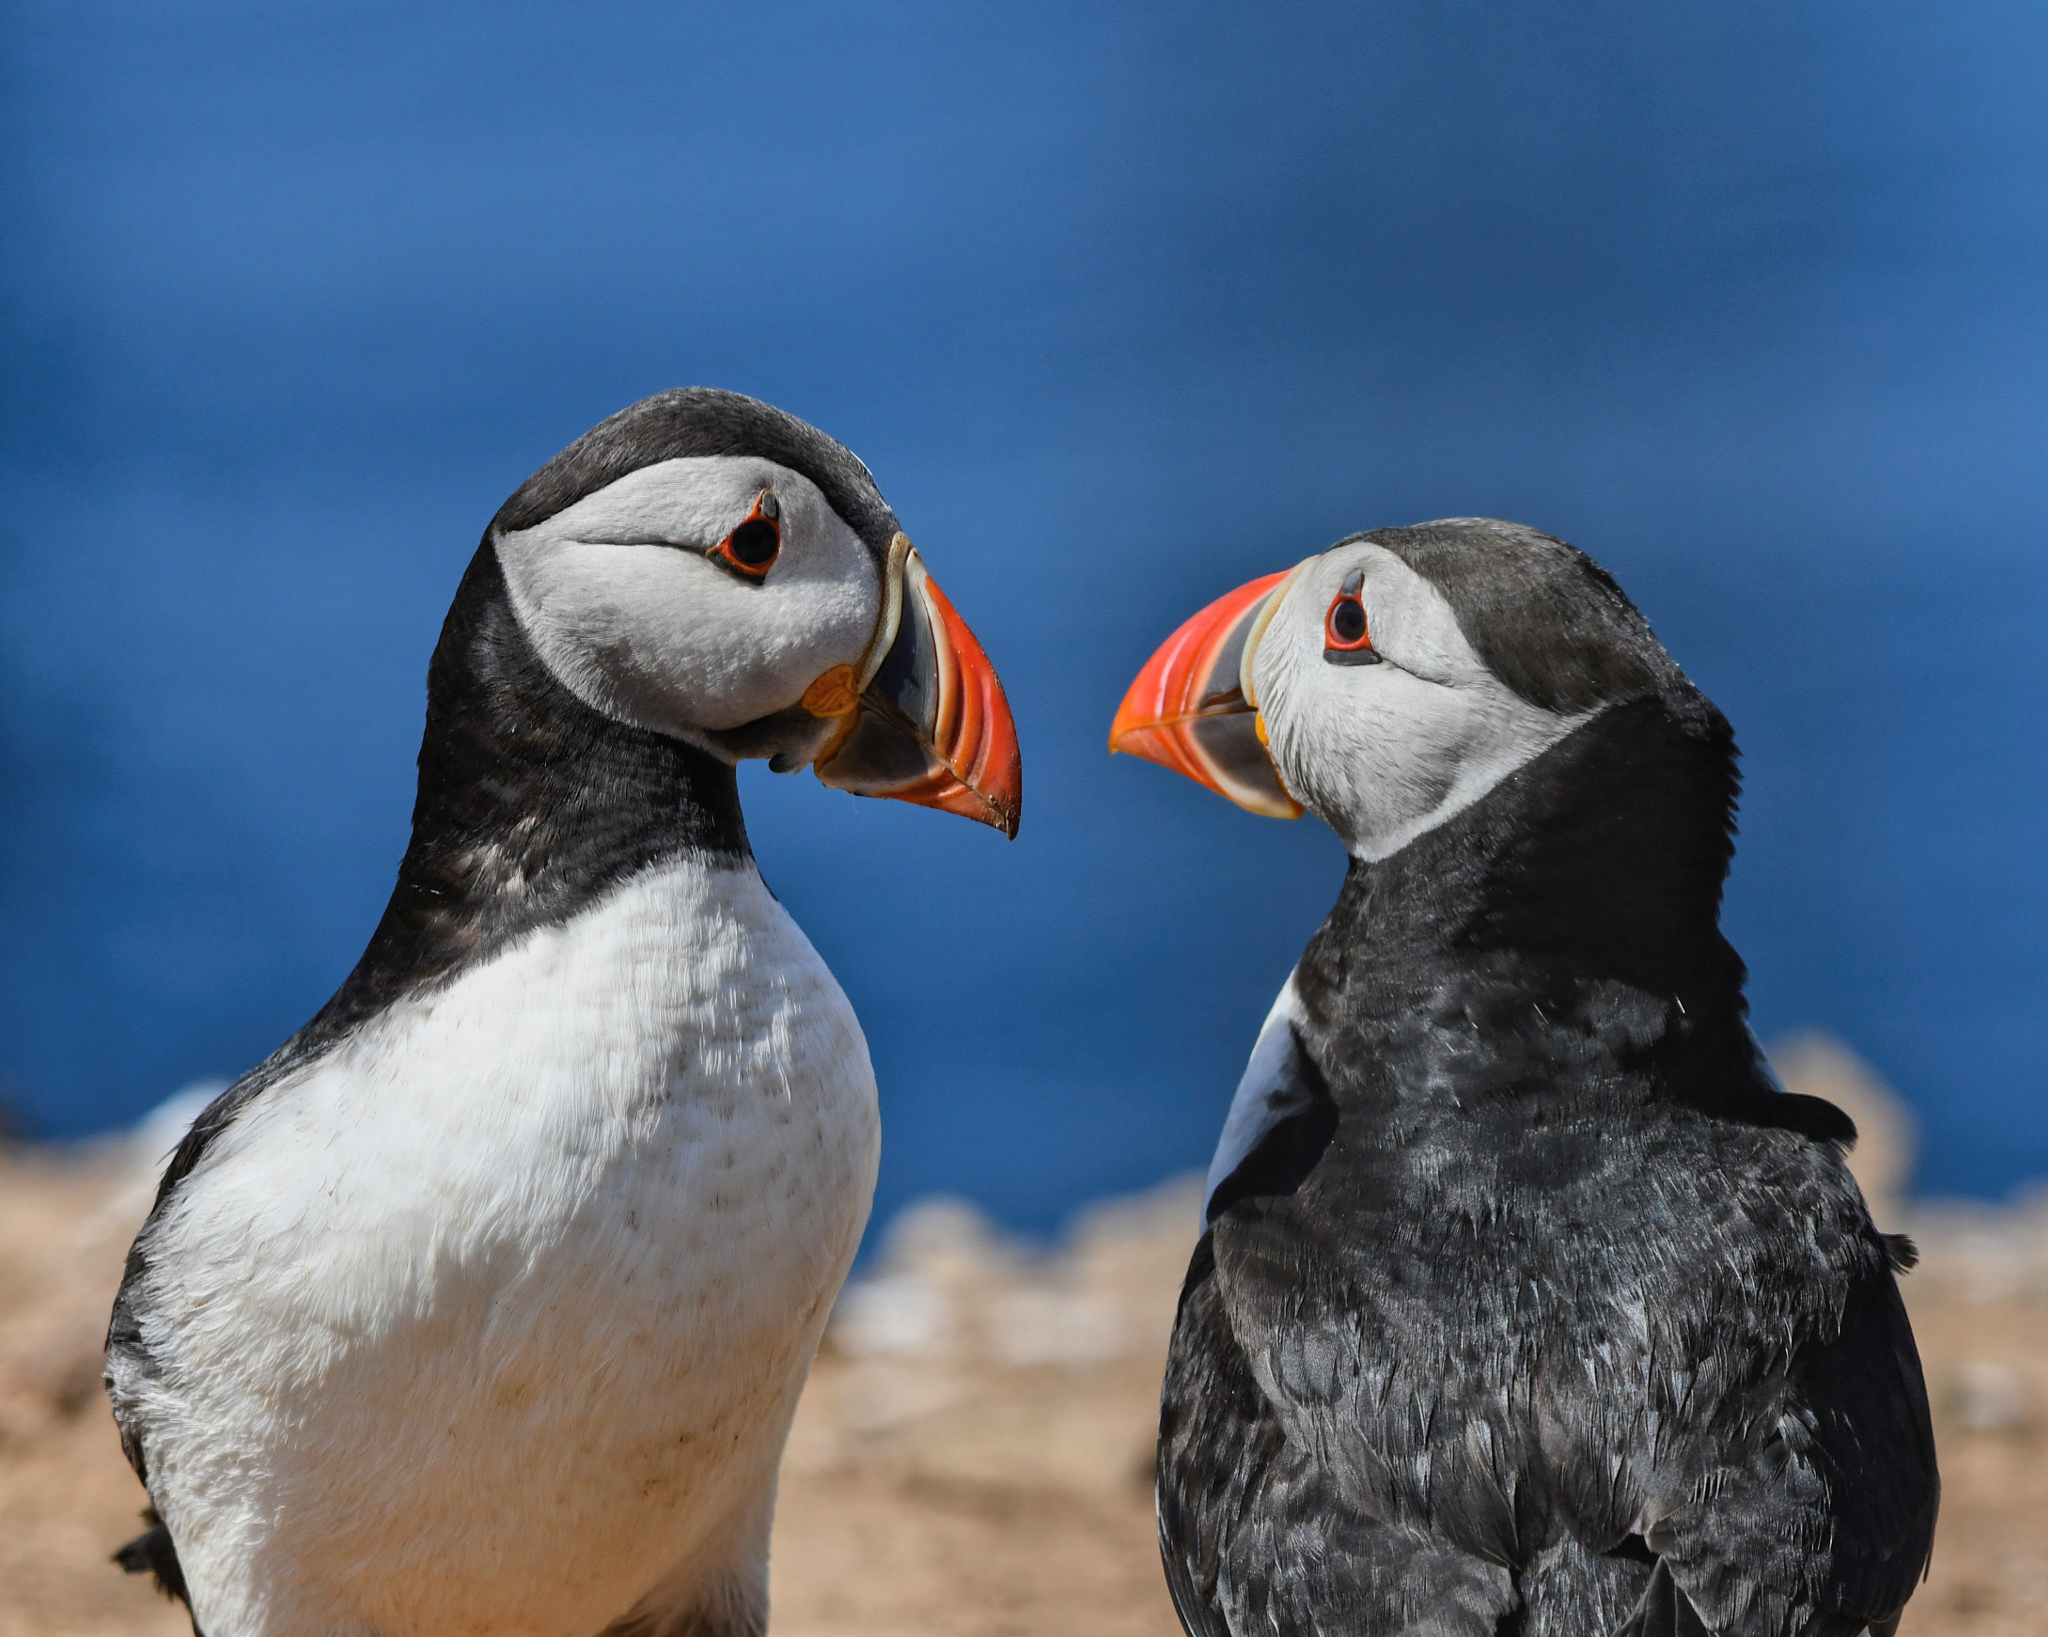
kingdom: Animalia
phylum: Chordata
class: Aves
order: Charadriiformes
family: Alcidae
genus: Fratercula
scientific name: Fratercula arctica
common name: Atlantic puffin
